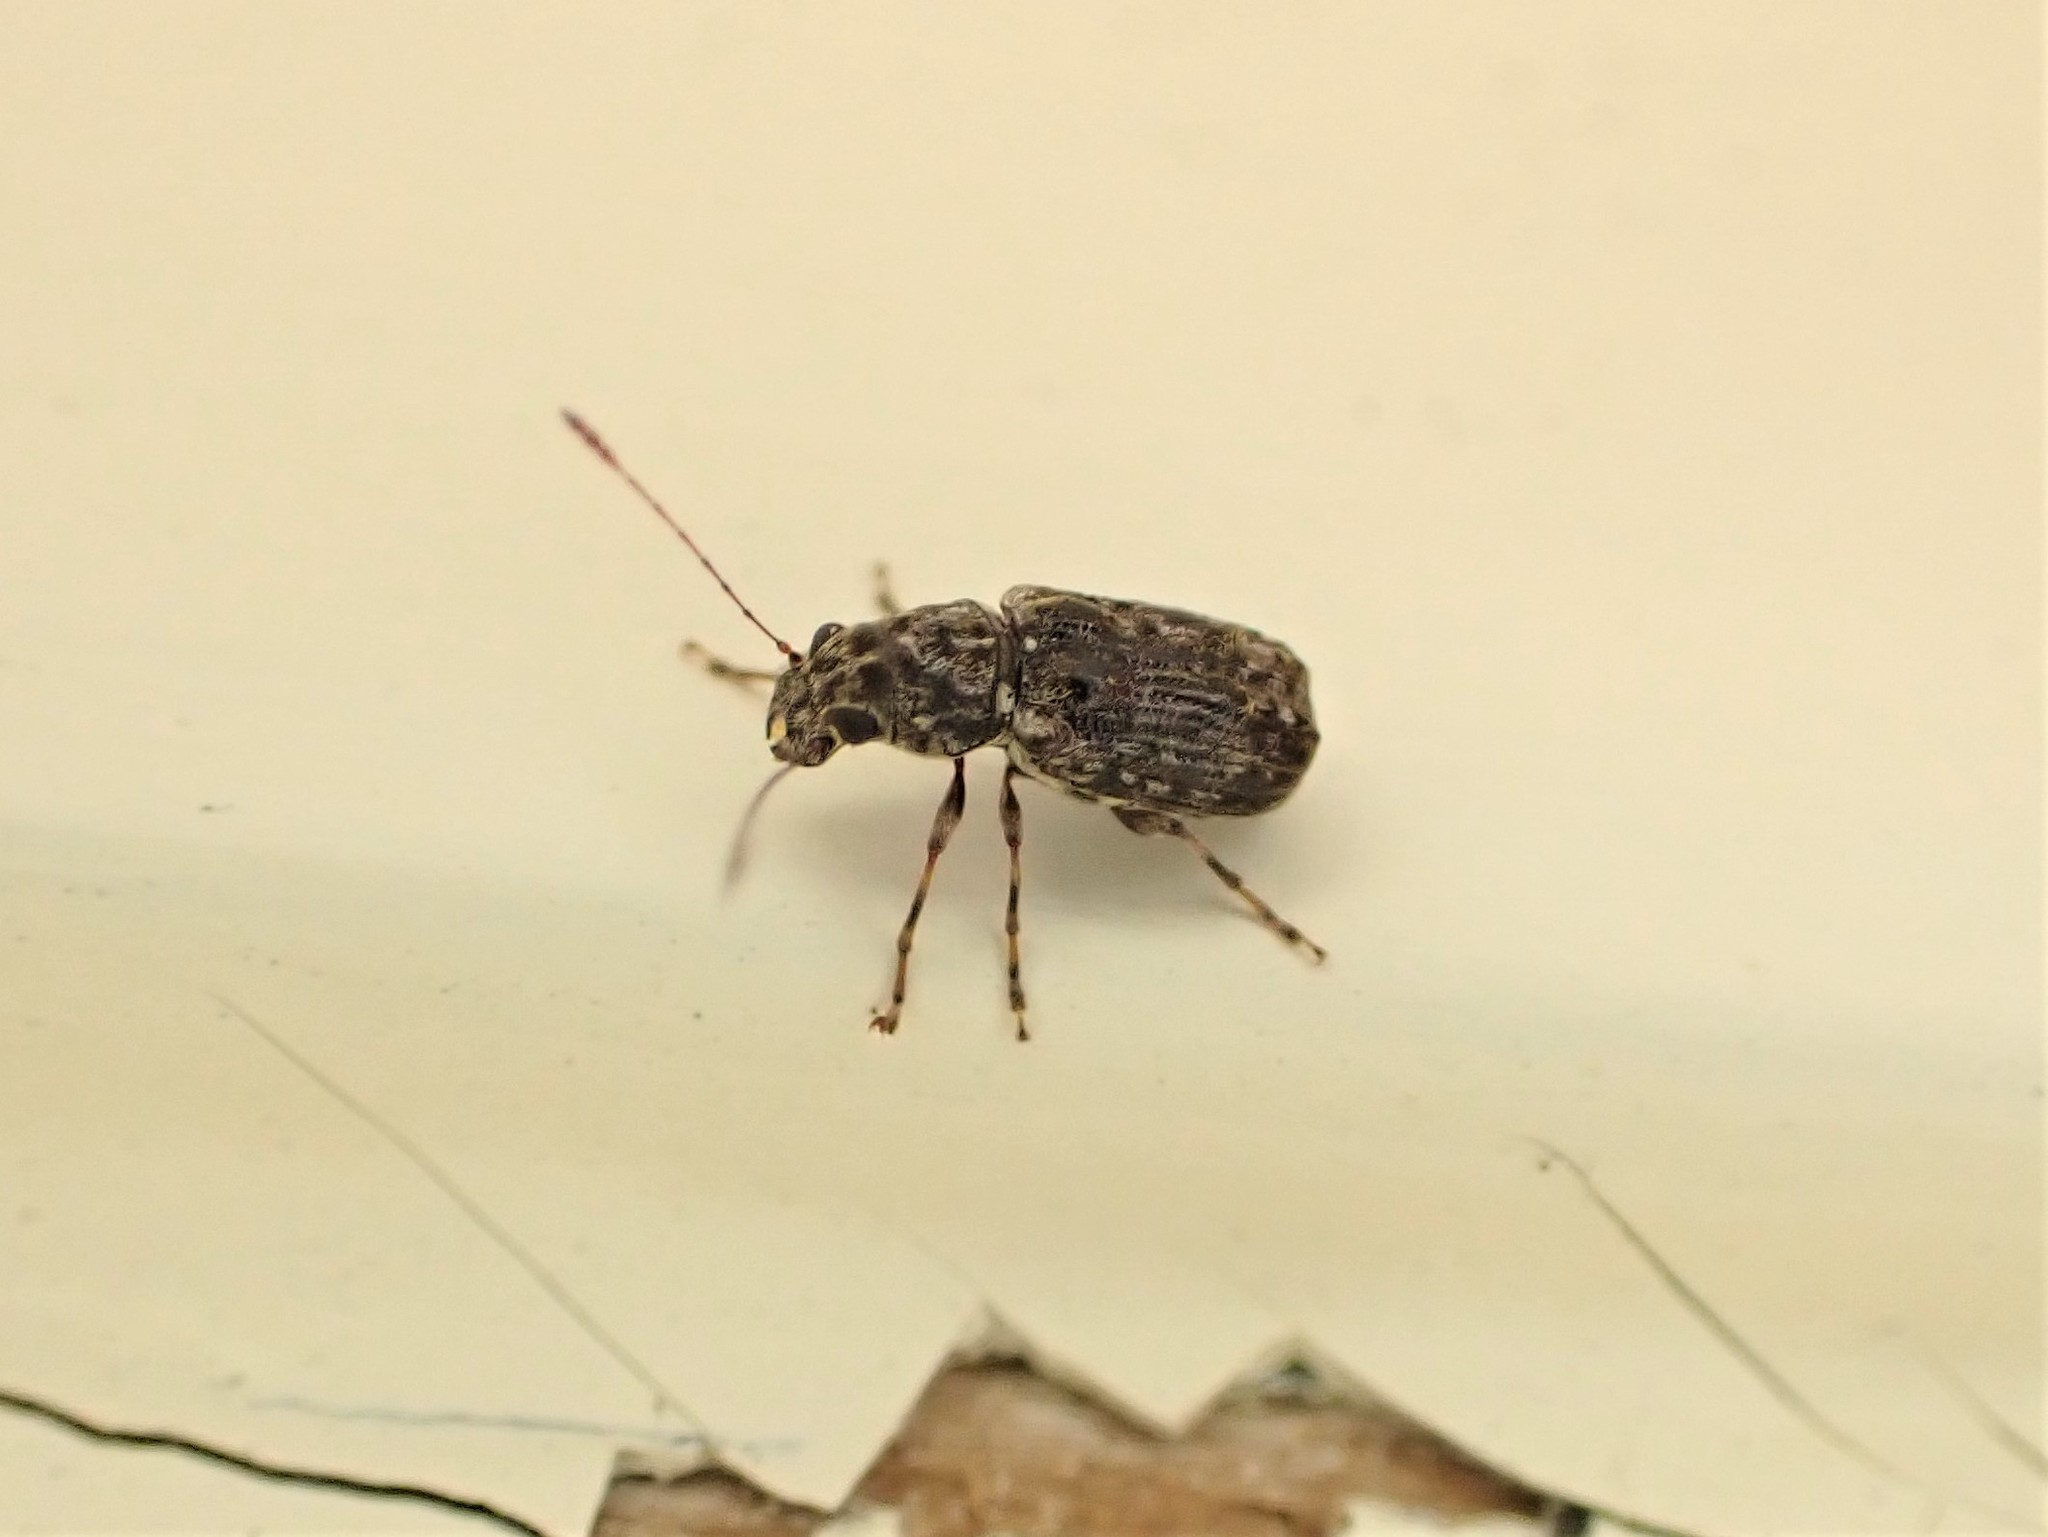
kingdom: Animalia
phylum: Arthropoda
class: Insecta
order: Coleoptera
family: Anthribidae
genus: Phymatus
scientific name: Phymatus
